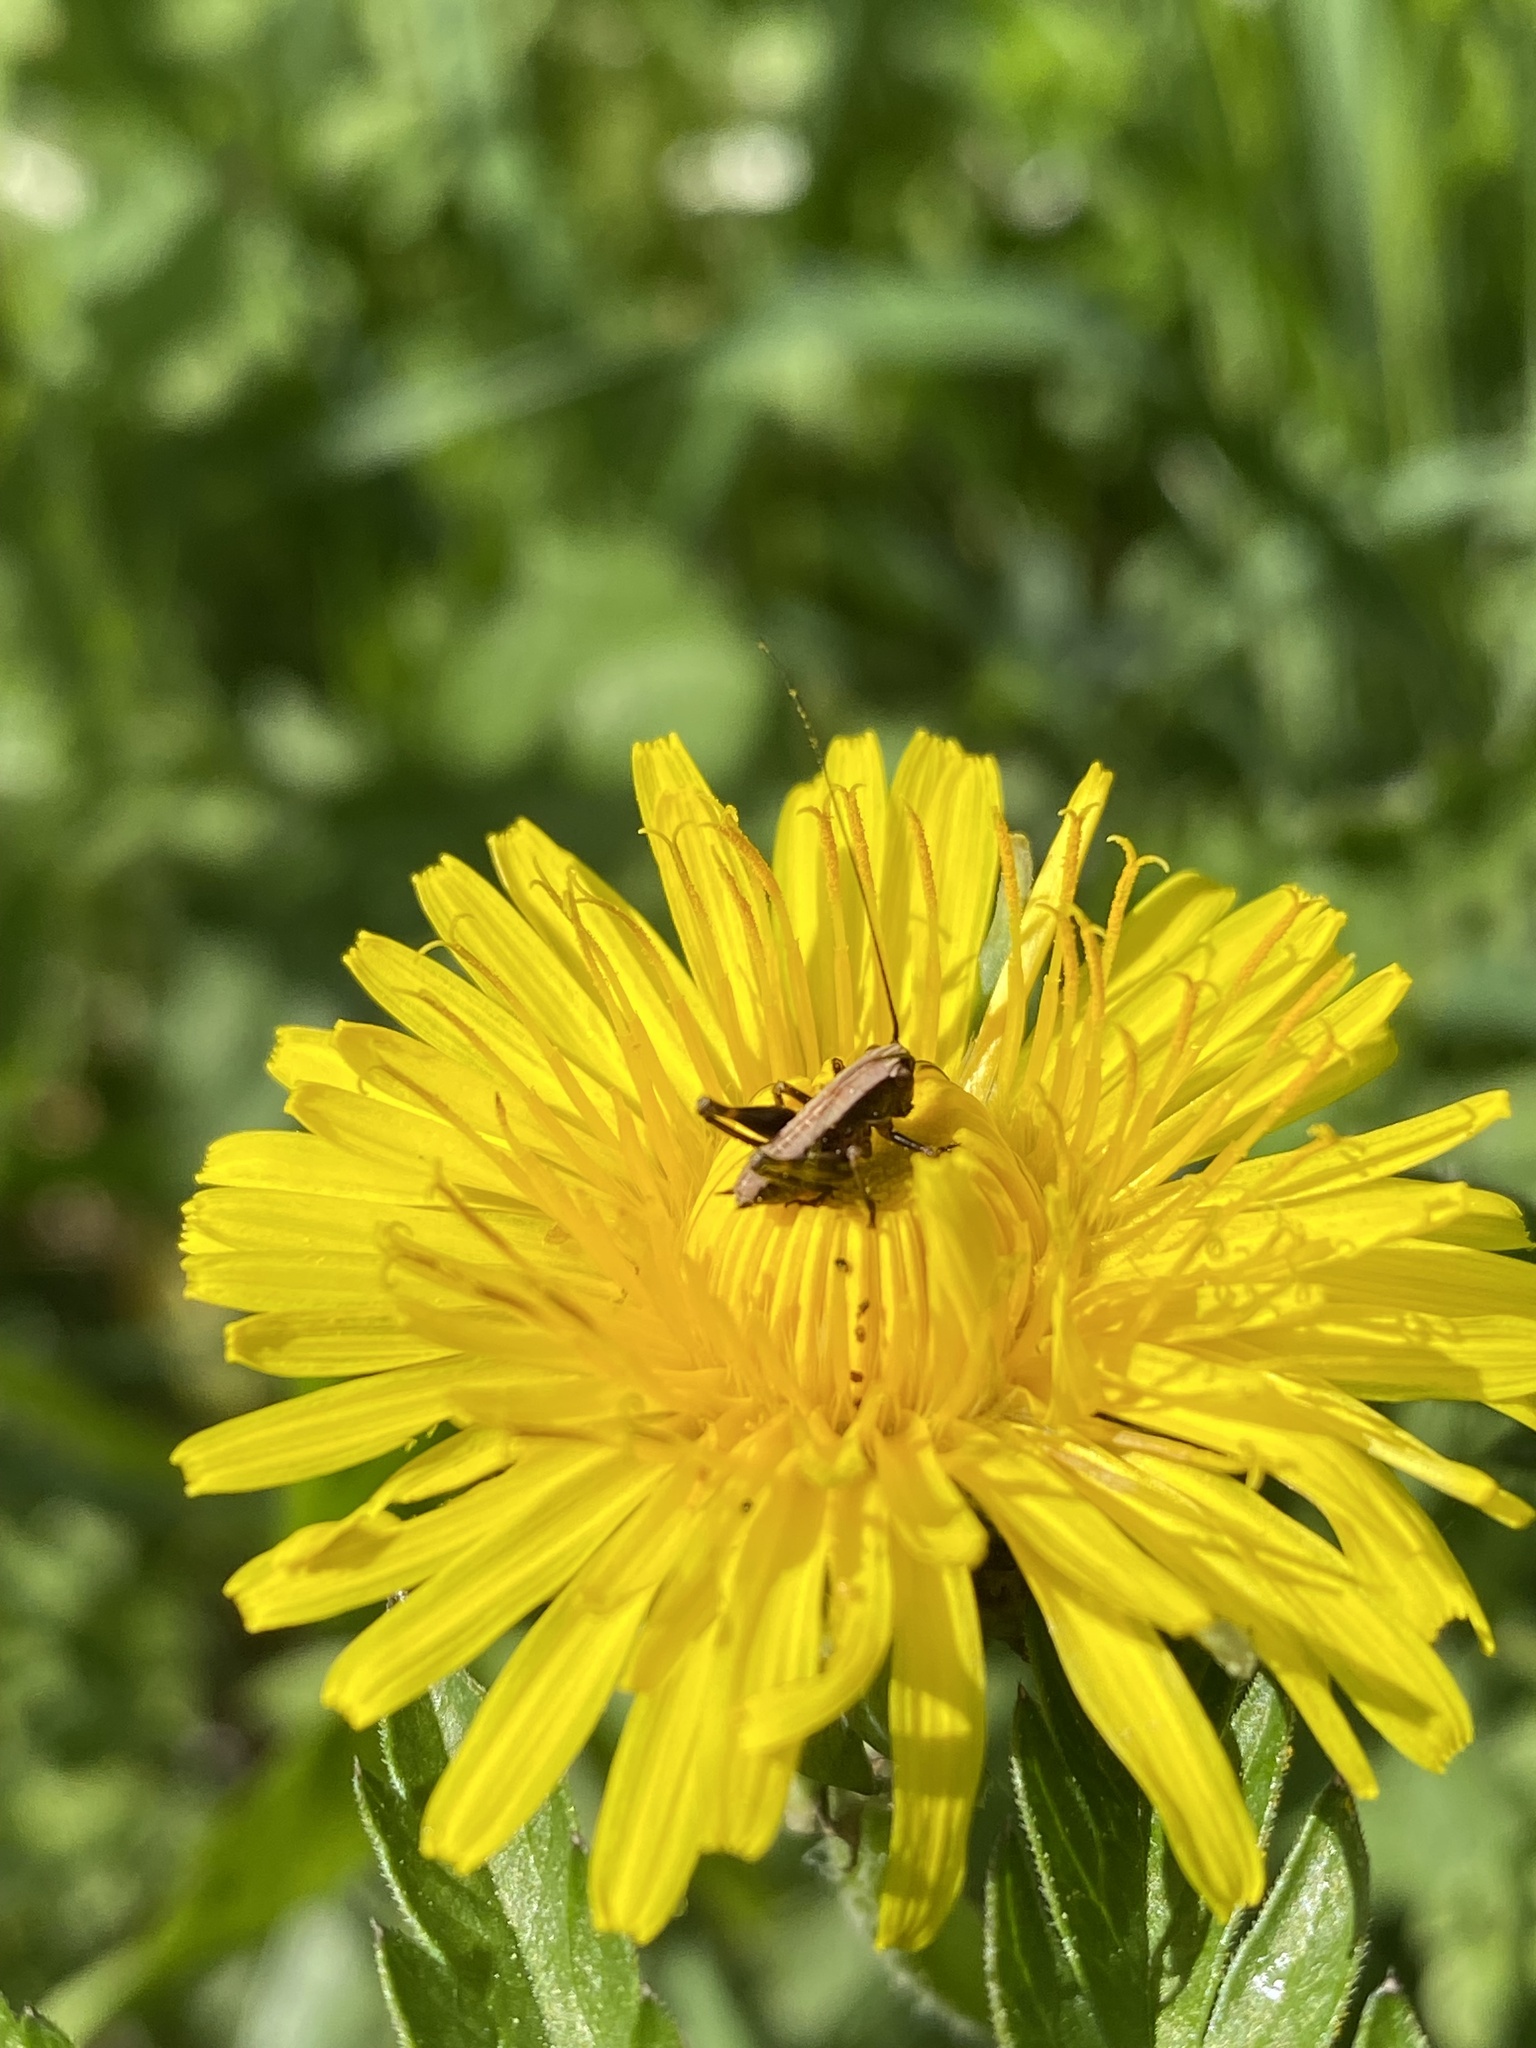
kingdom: Animalia
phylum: Arthropoda
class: Insecta
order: Orthoptera
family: Tettigoniidae
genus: Pholidoptera
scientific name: Pholidoptera griseoaptera
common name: Dark bush-cricket
